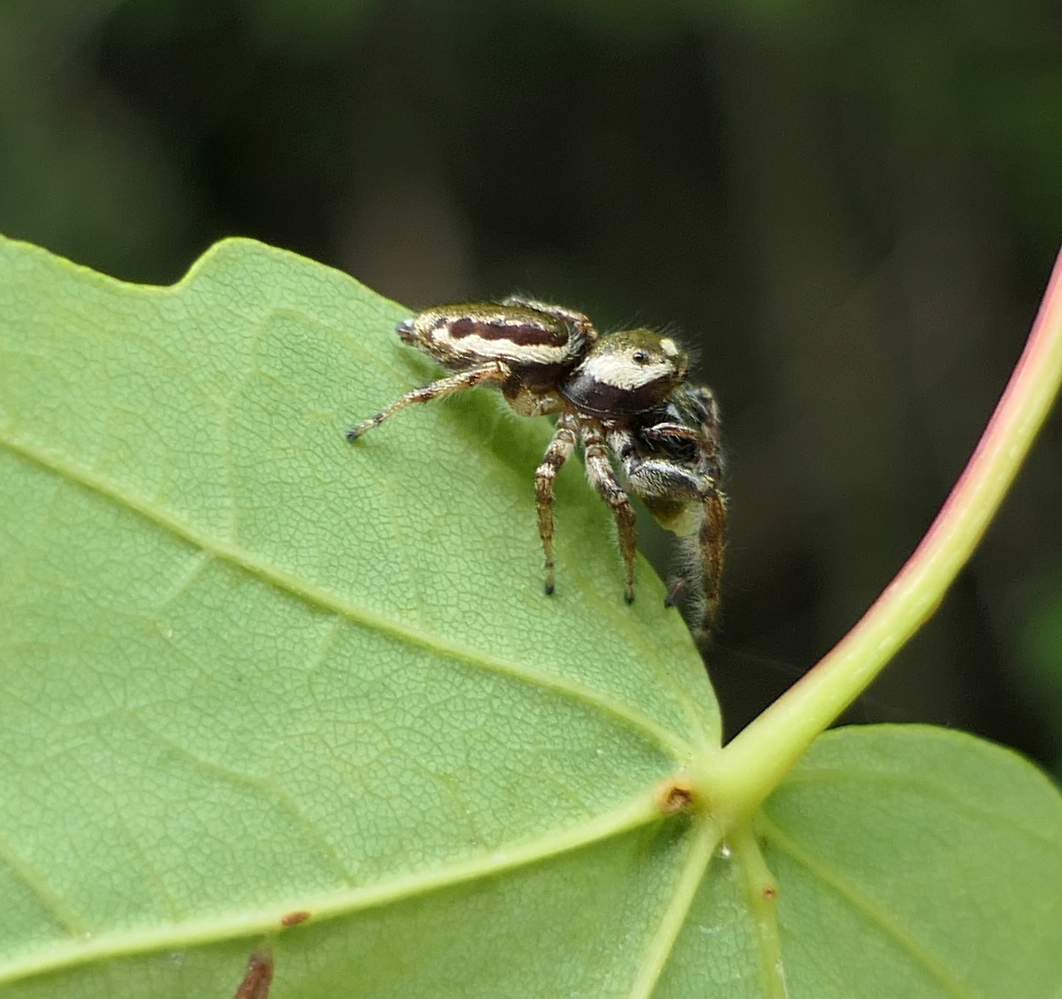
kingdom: Animalia
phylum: Arthropoda
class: Arachnida
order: Araneae
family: Salticidae
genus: Eris
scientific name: Eris militaris
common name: Bronze jumper
